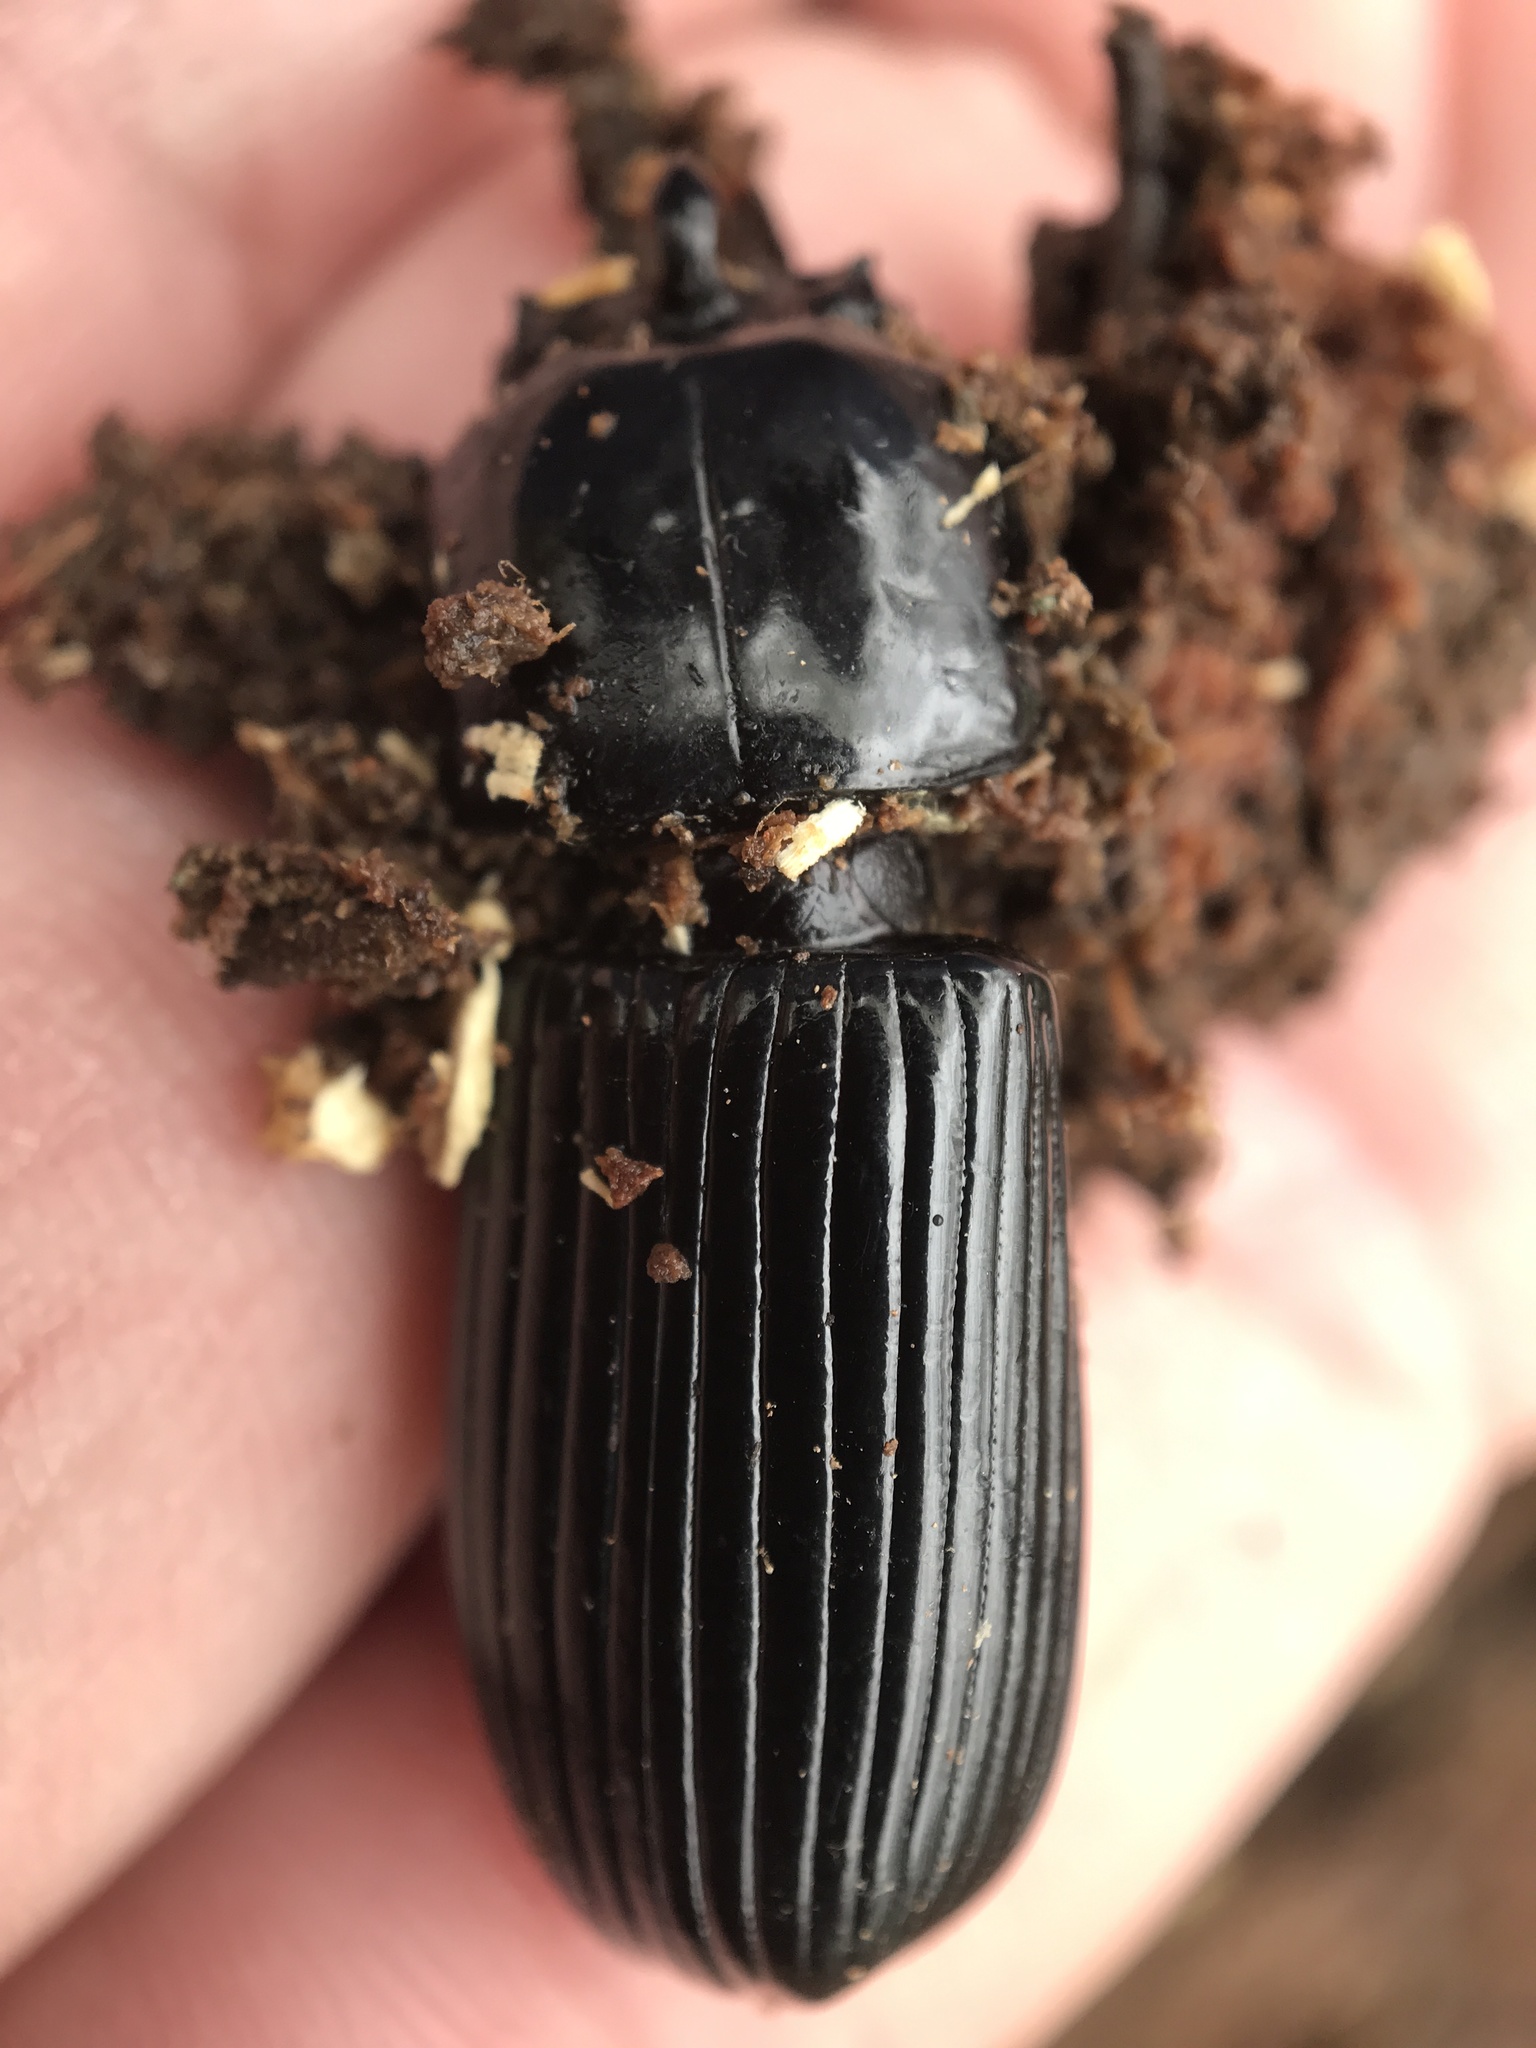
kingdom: Animalia
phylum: Arthropoda
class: Insecta
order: Coleoptera
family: Passalidae
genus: Odontotaenius
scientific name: Odontotaenius disjunctus
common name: Patent leather beetle
